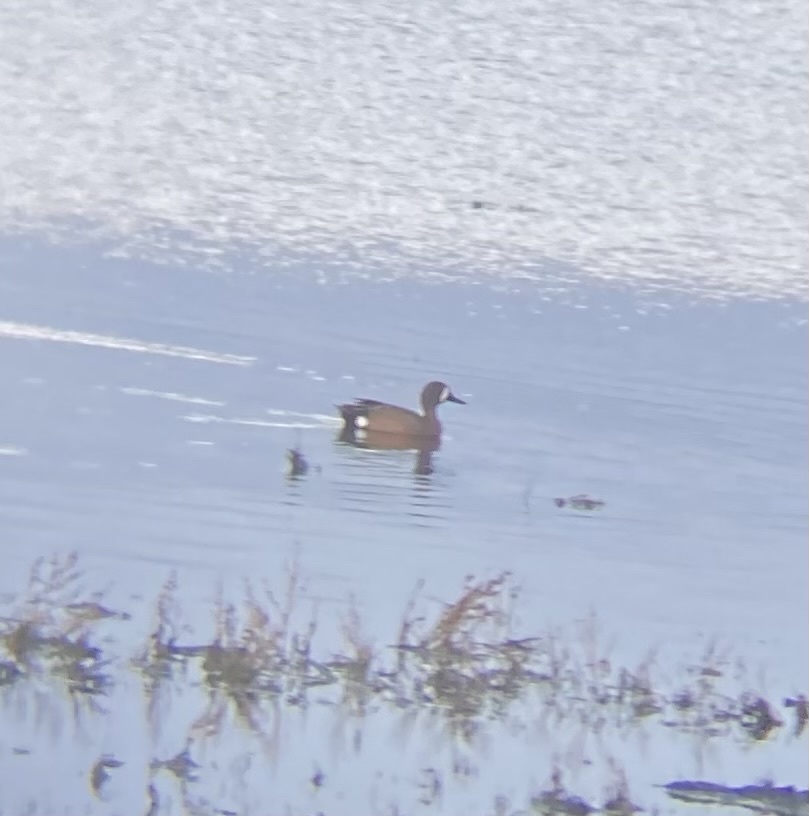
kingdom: Animalia
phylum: Chordata
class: Aves
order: Anseriformes
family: Anatidae
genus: Spatula
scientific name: Spatula discors
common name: Blue-winged teal
